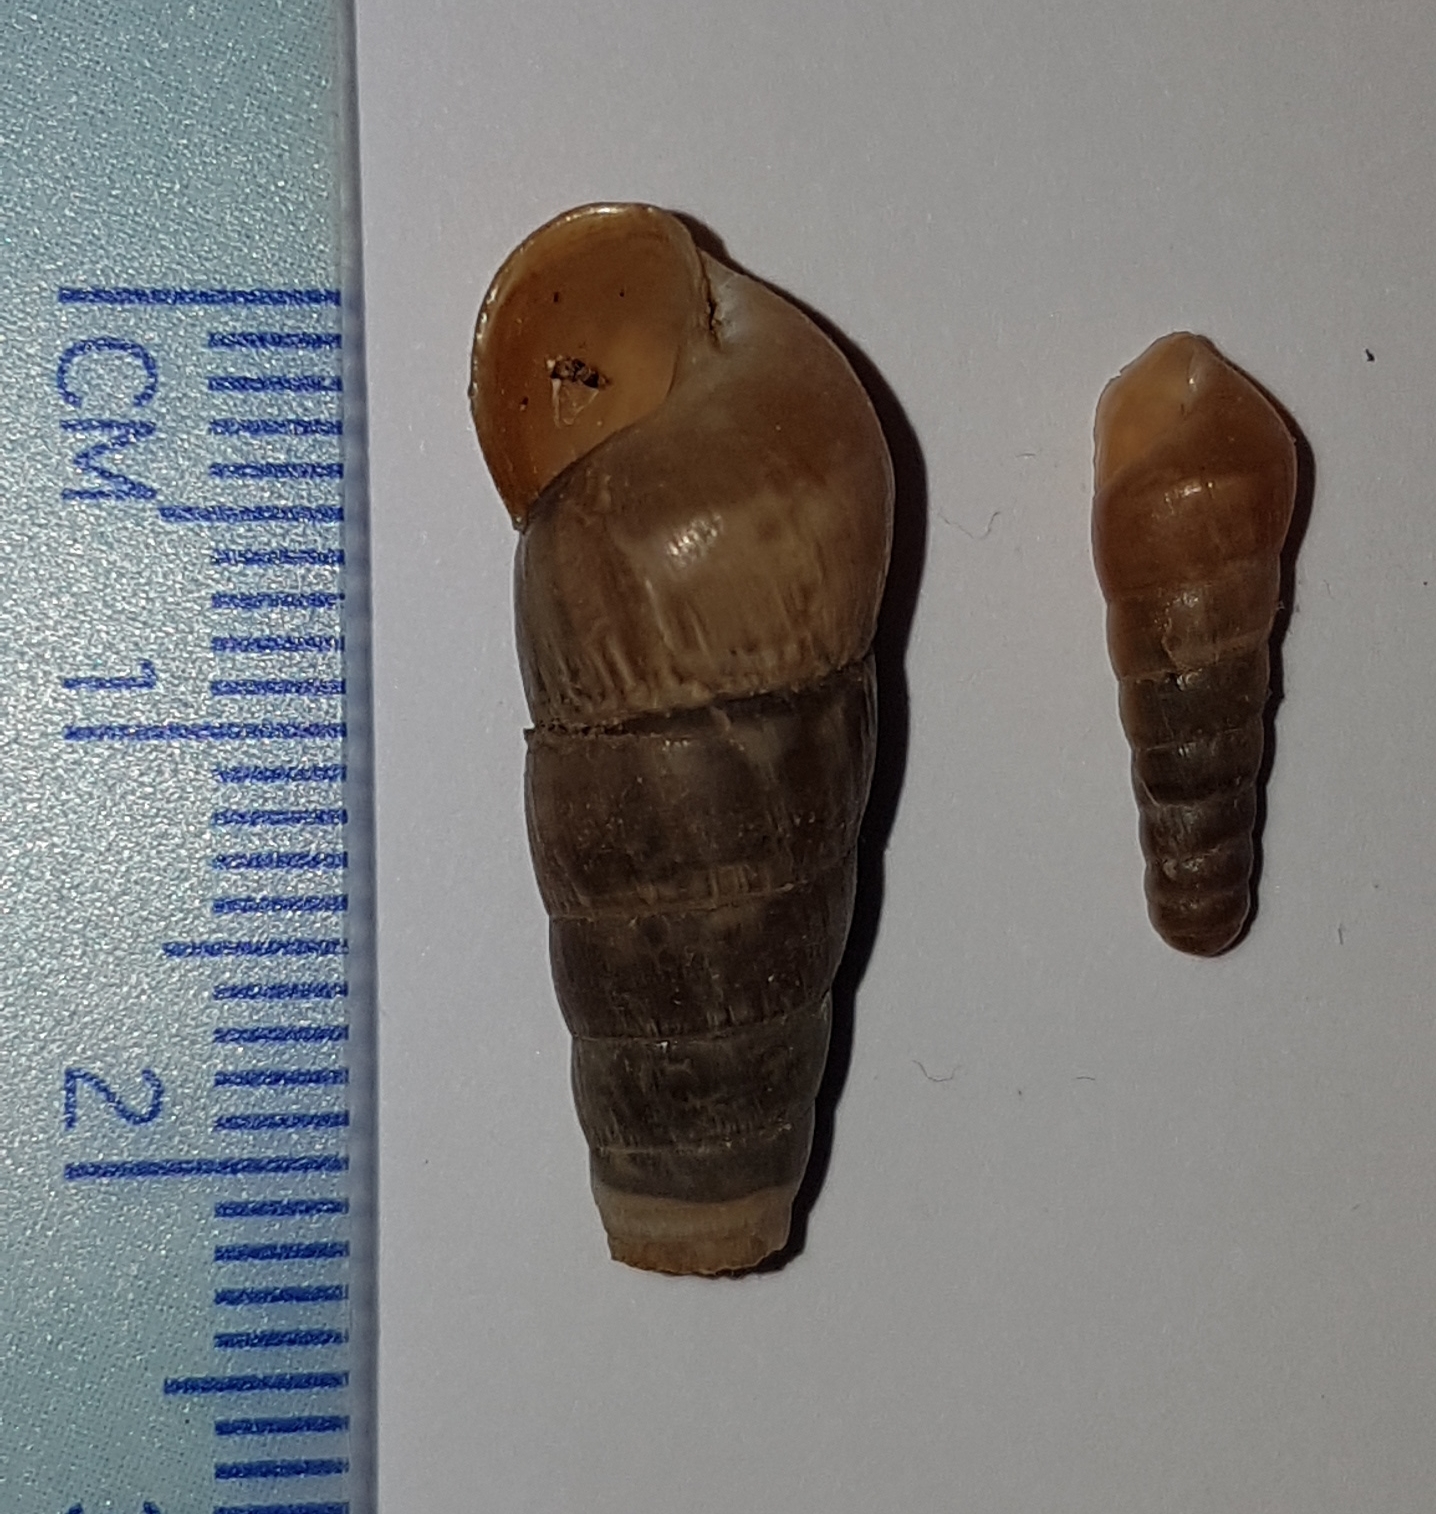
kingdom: Animalia
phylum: Mollusca
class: Gastropoda
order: Stylommatophora
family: Achatinidae
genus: Rumina
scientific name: Rumina decollata
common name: Decollate snail
